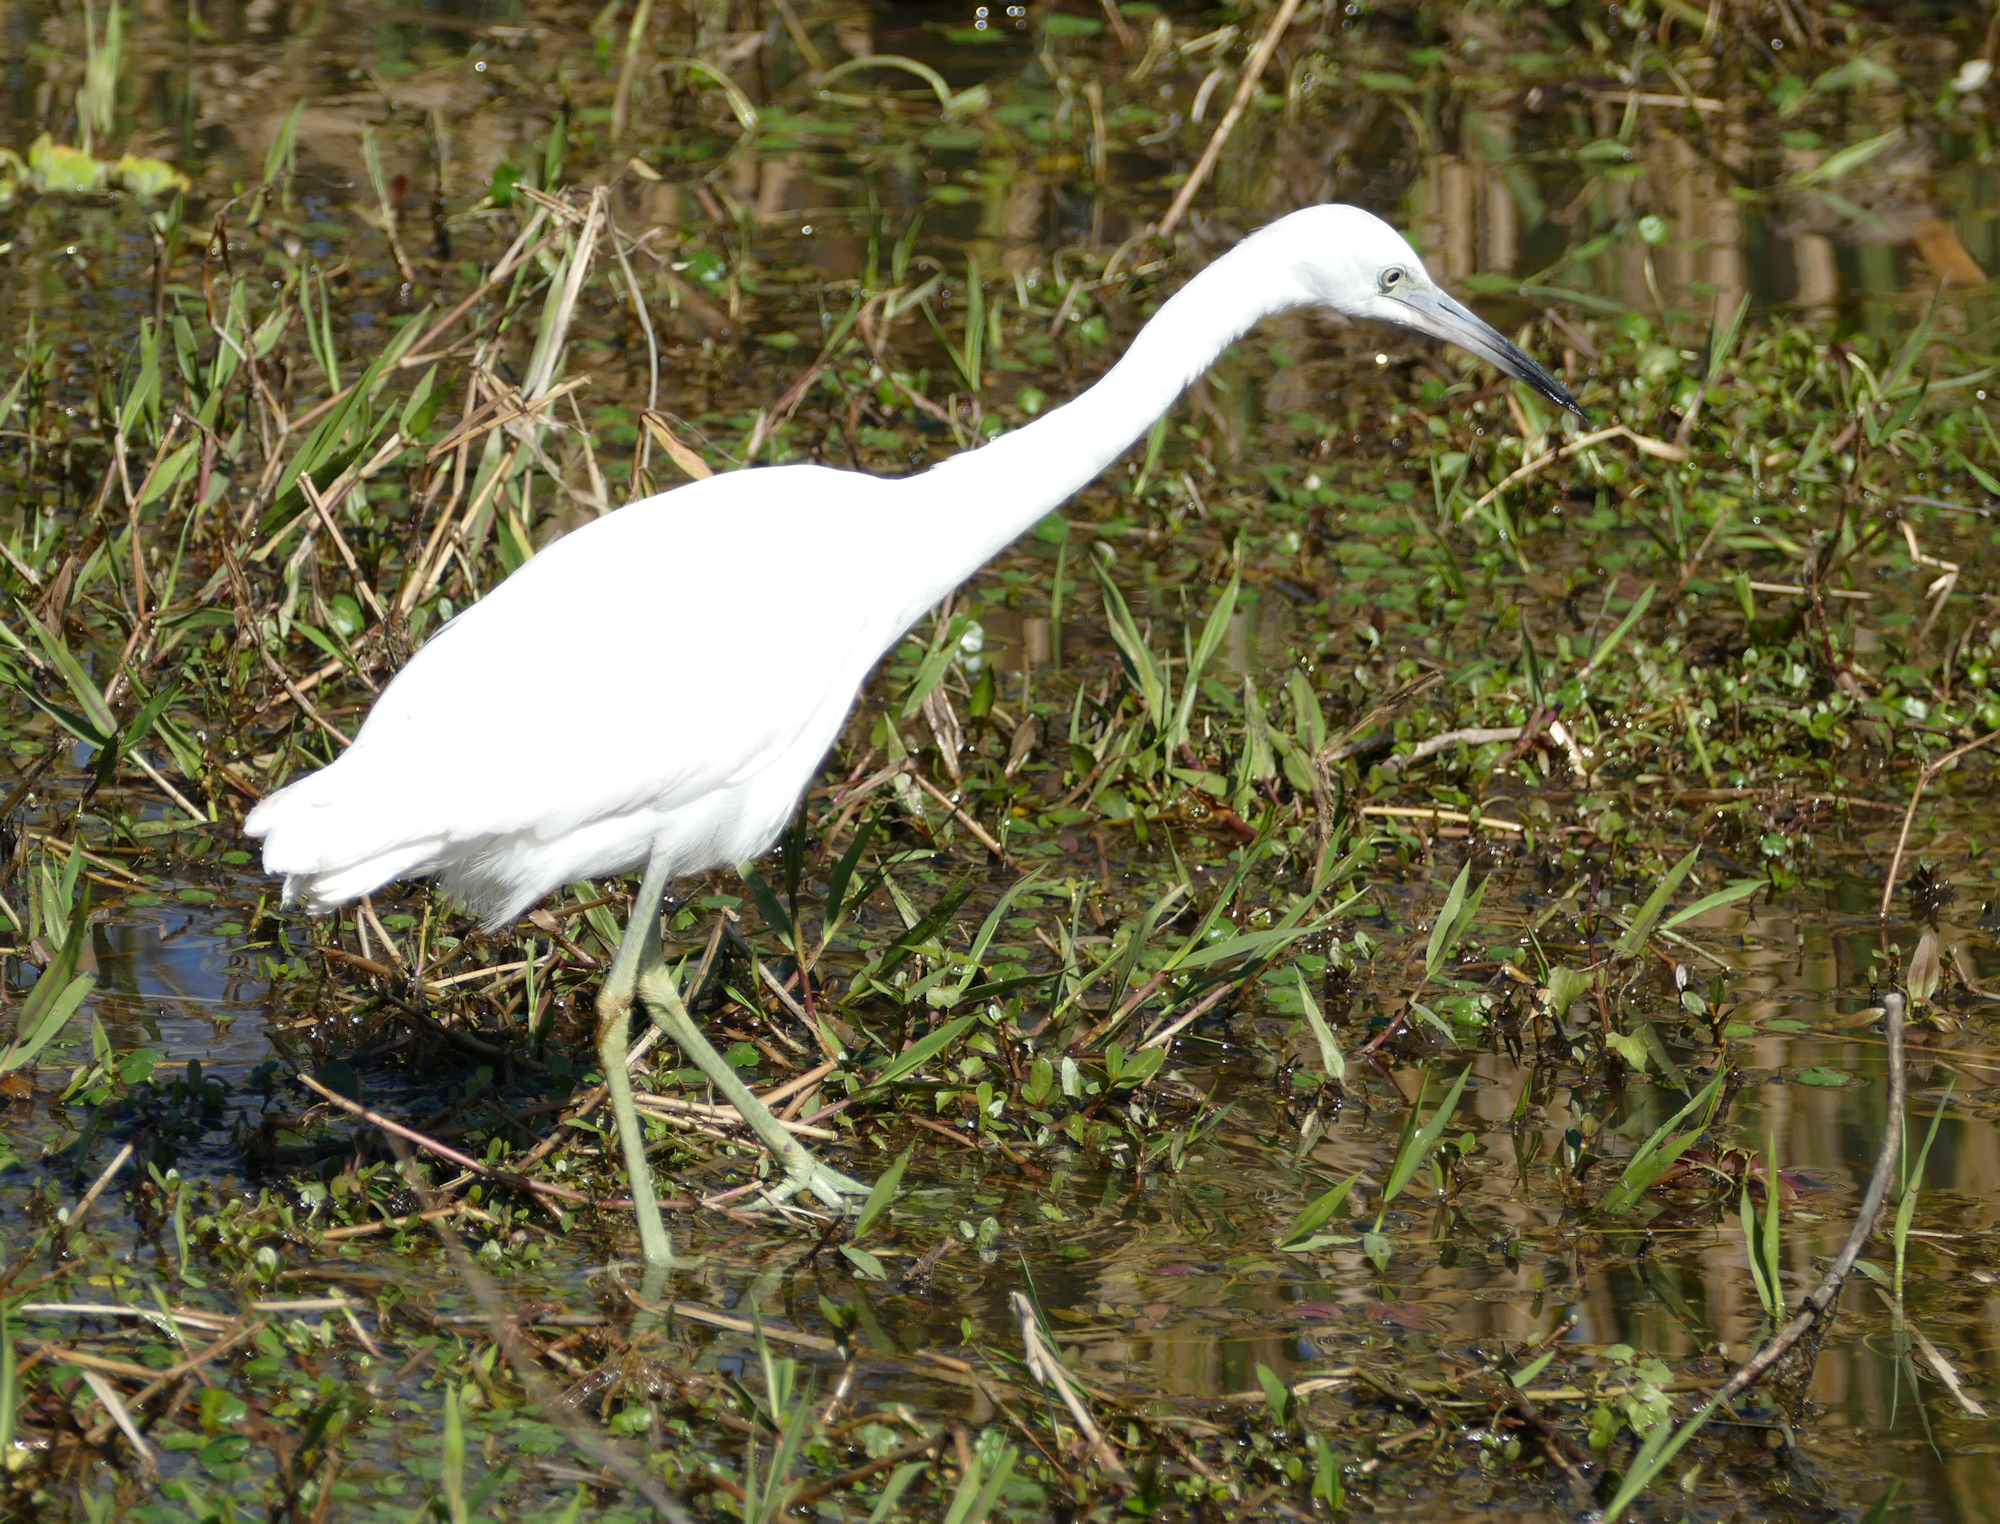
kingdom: Animalia
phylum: Chordata
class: Aves
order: Pelecaniformes
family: Ardeidae
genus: Egretta
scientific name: Egretta caerulea
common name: Little blue heron
